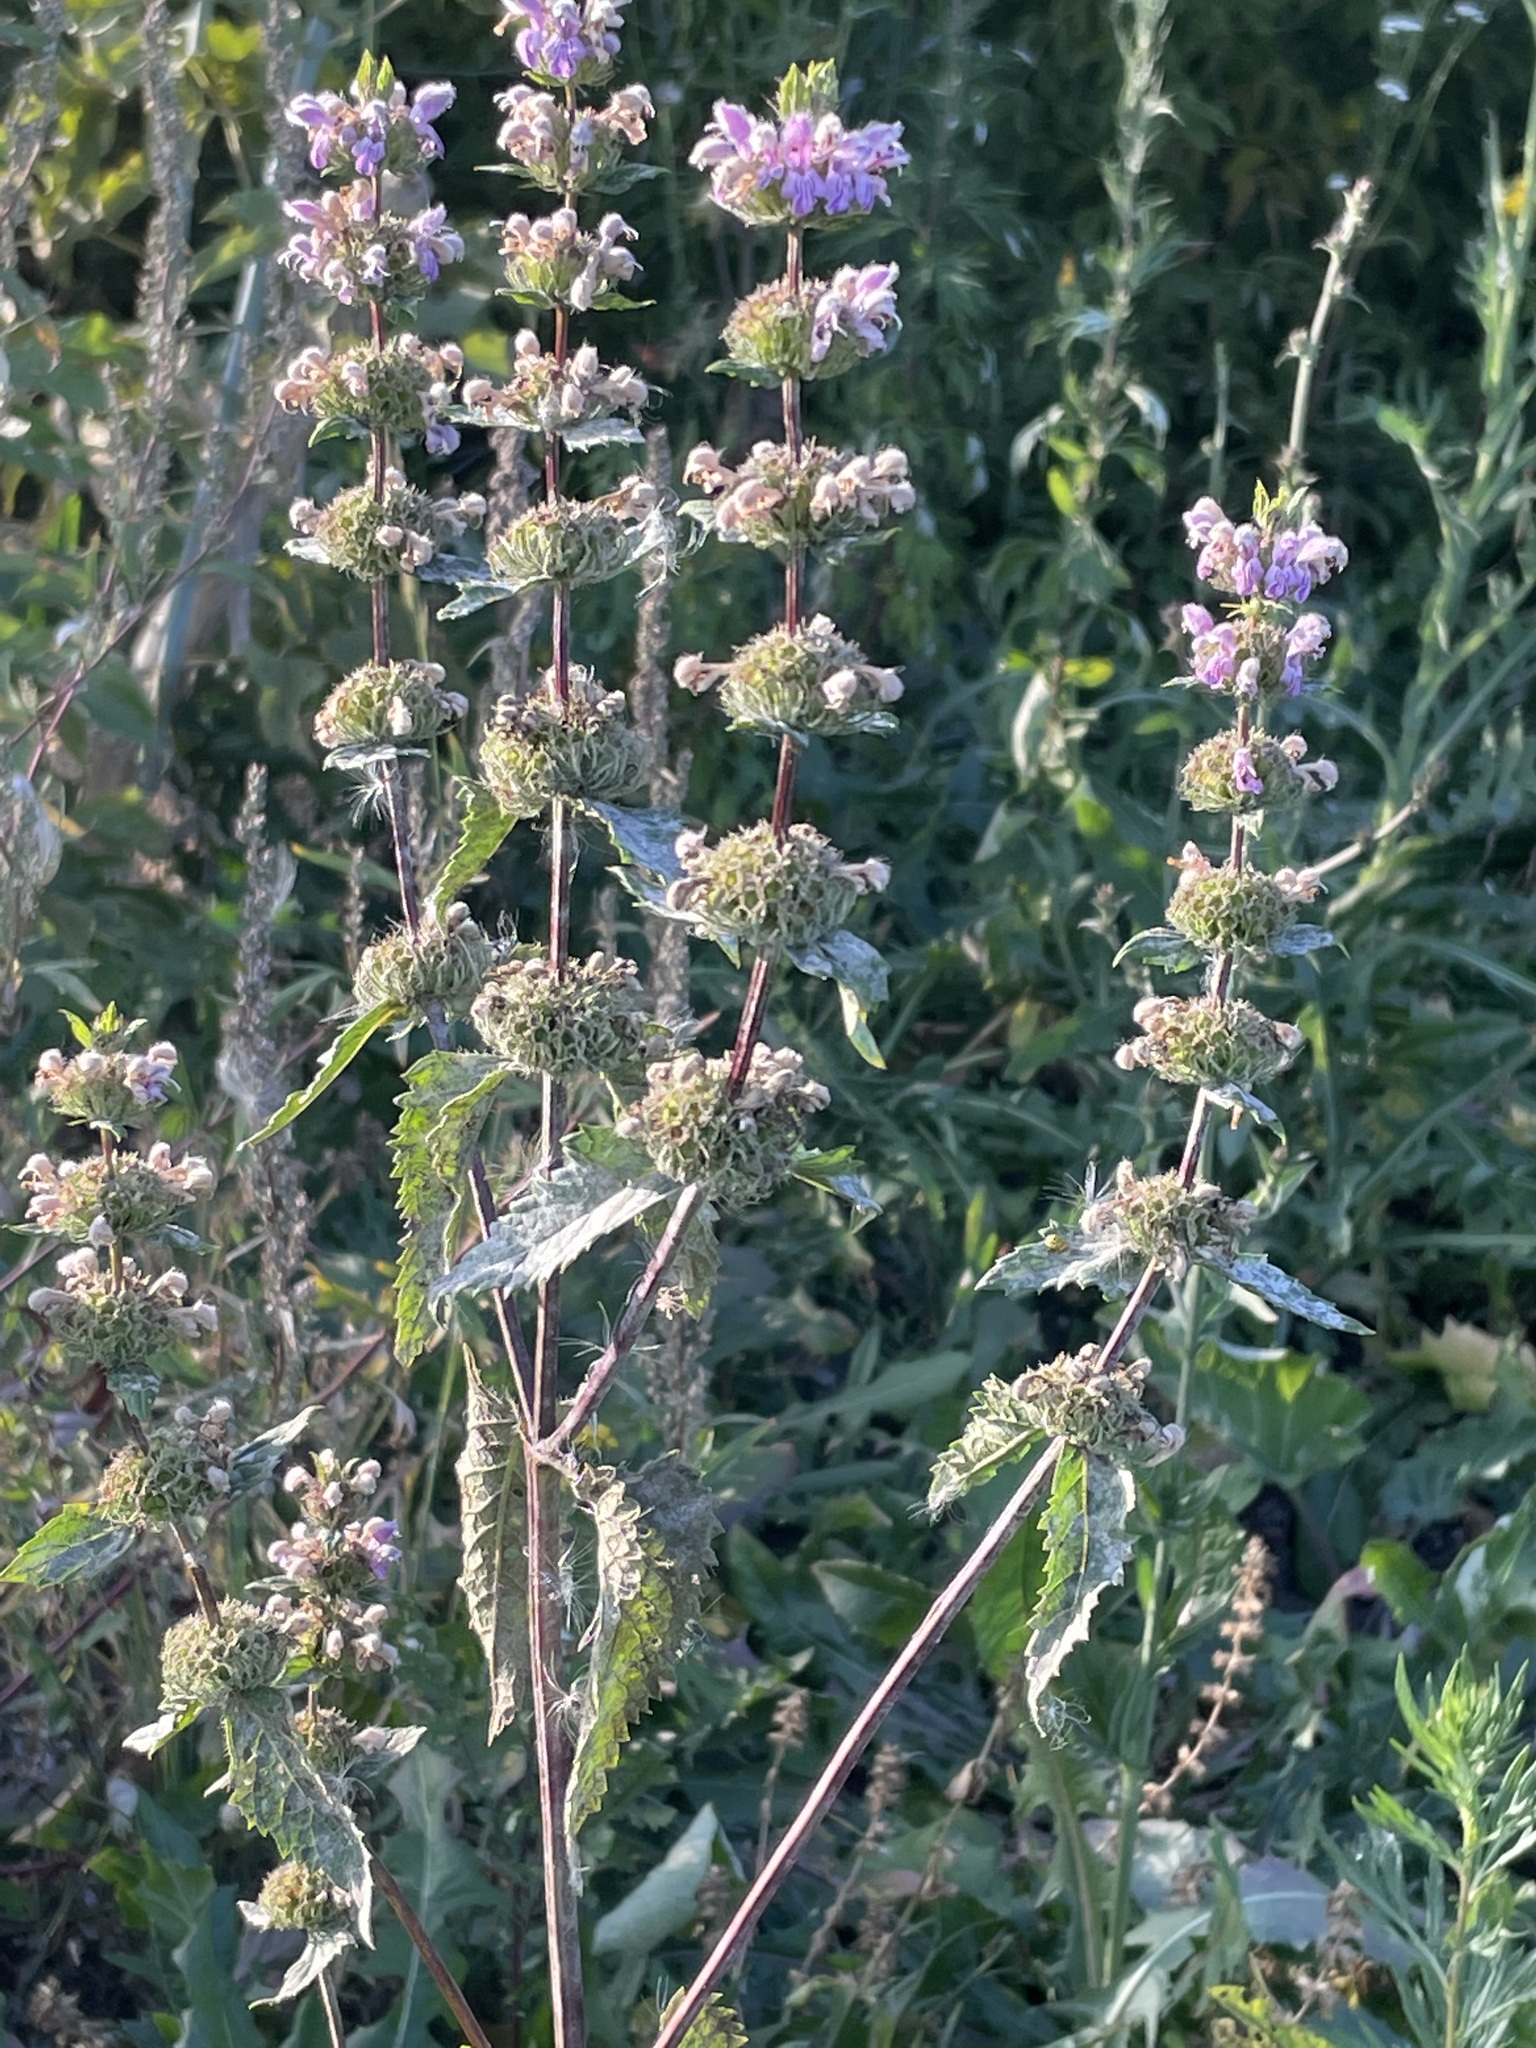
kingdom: Plantae
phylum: Tracheophyta
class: Magnoliopsida
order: Lamiales
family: Lamiaceae
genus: Phlomoides
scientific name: Phlomoides tuberosa
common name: Tuberous jerusalem sage
